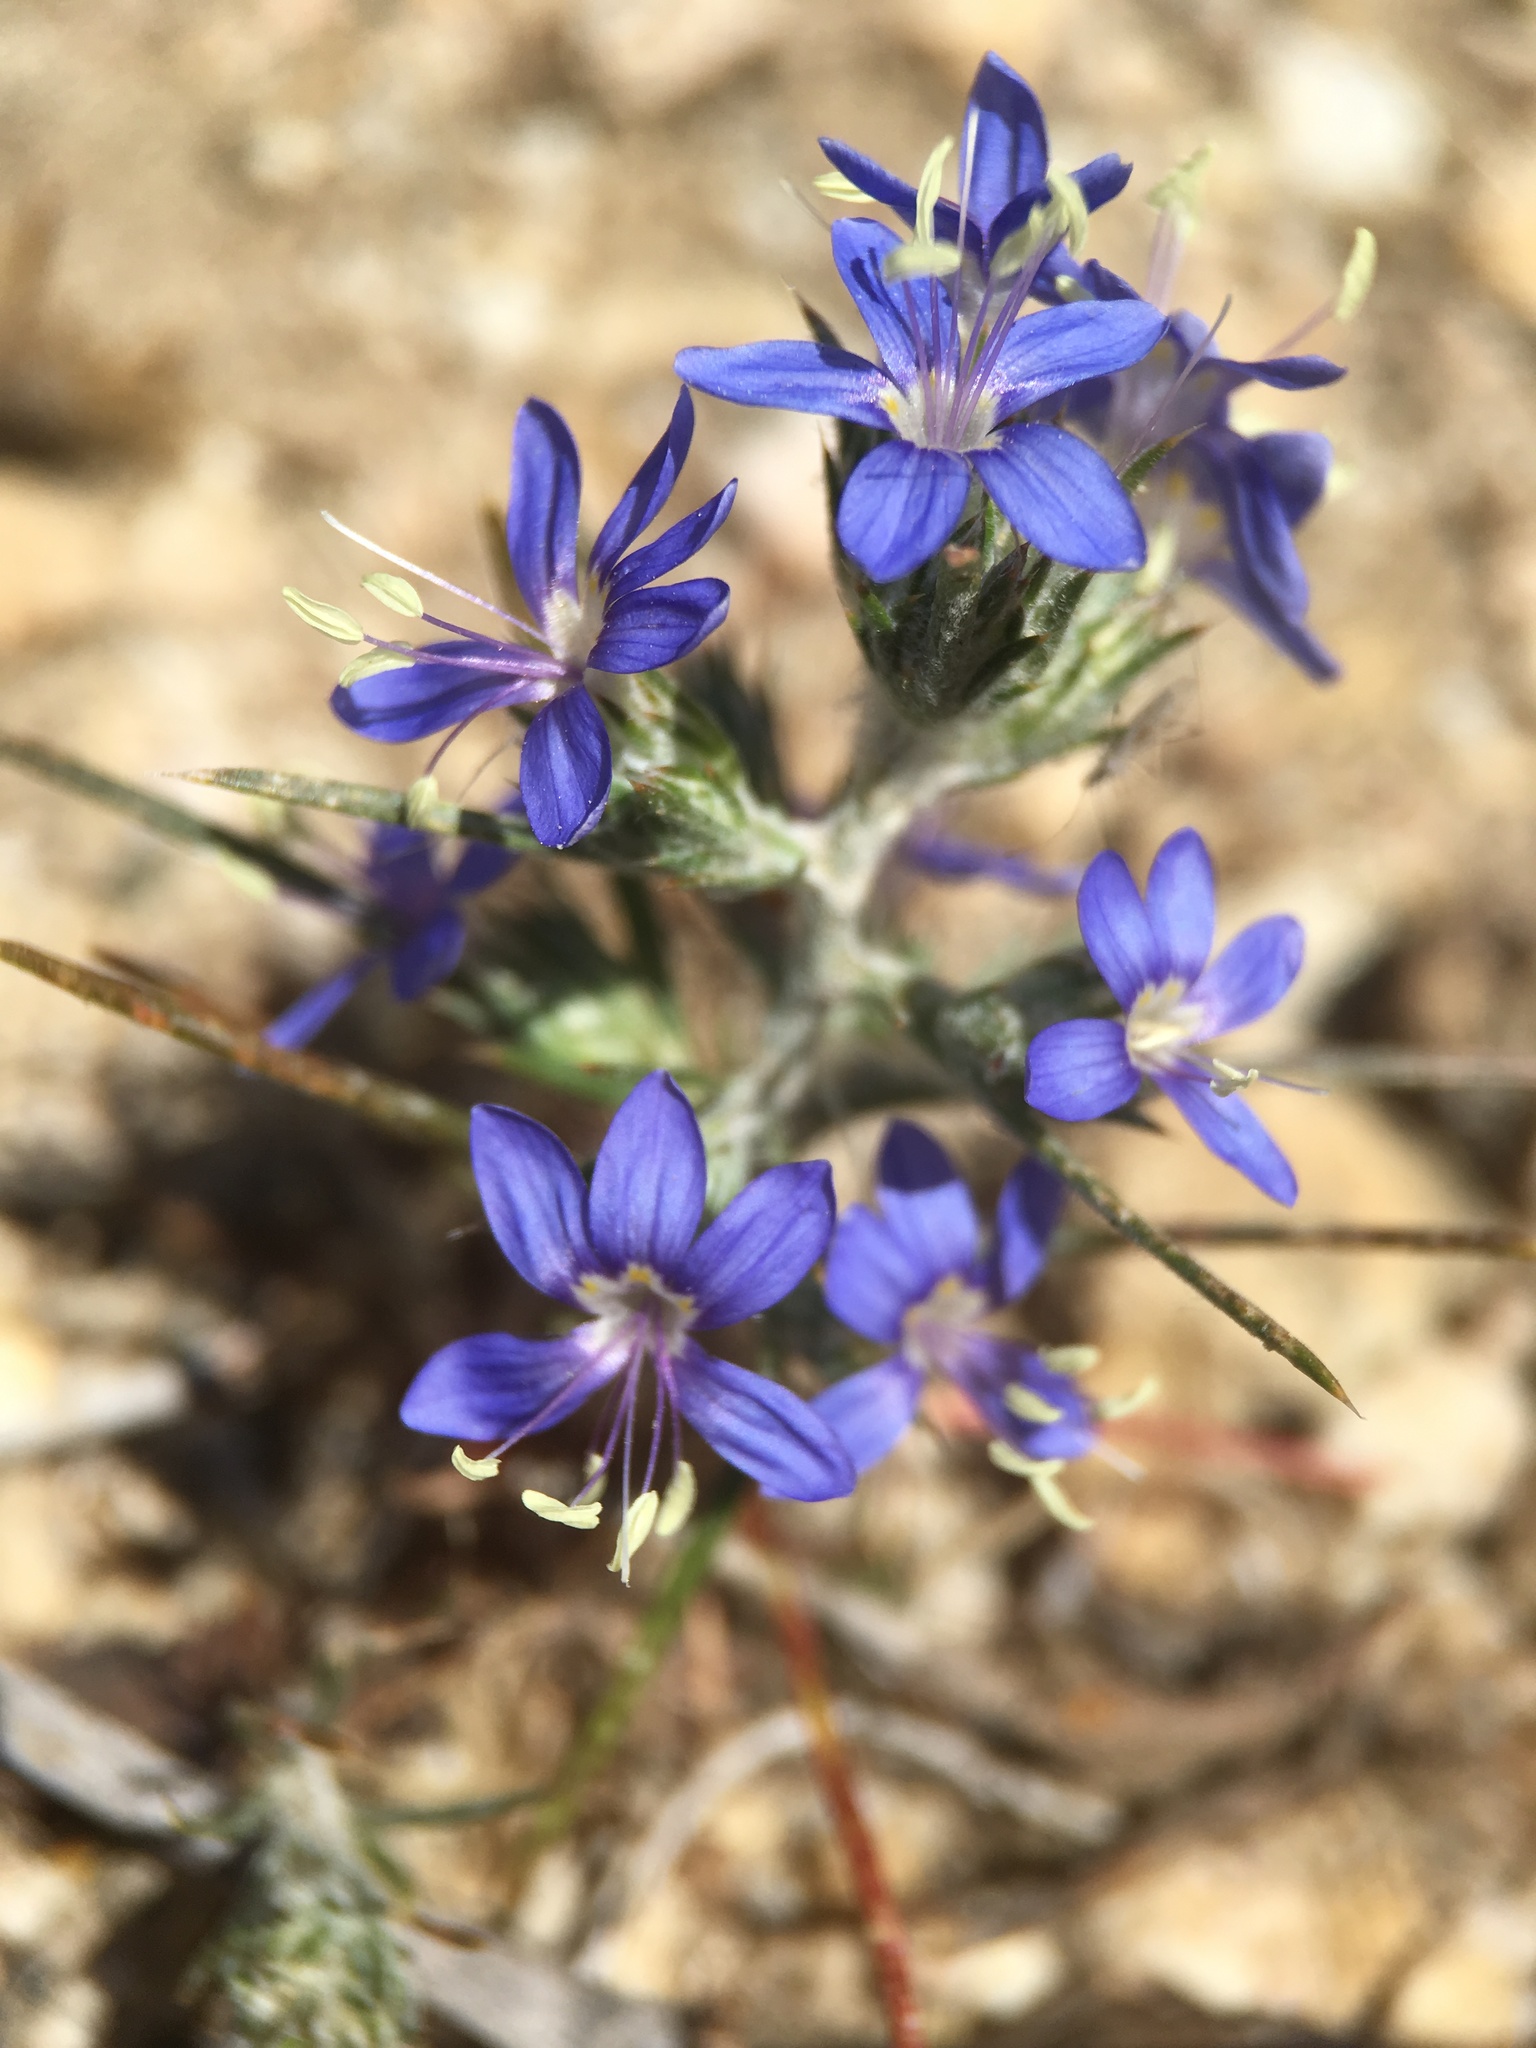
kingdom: Plantae
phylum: Tracheophyta
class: Magnoliopsida
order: Ericales
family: Polemoniaceae
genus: Eriastrum
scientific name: Eriastrum sapphirinum
